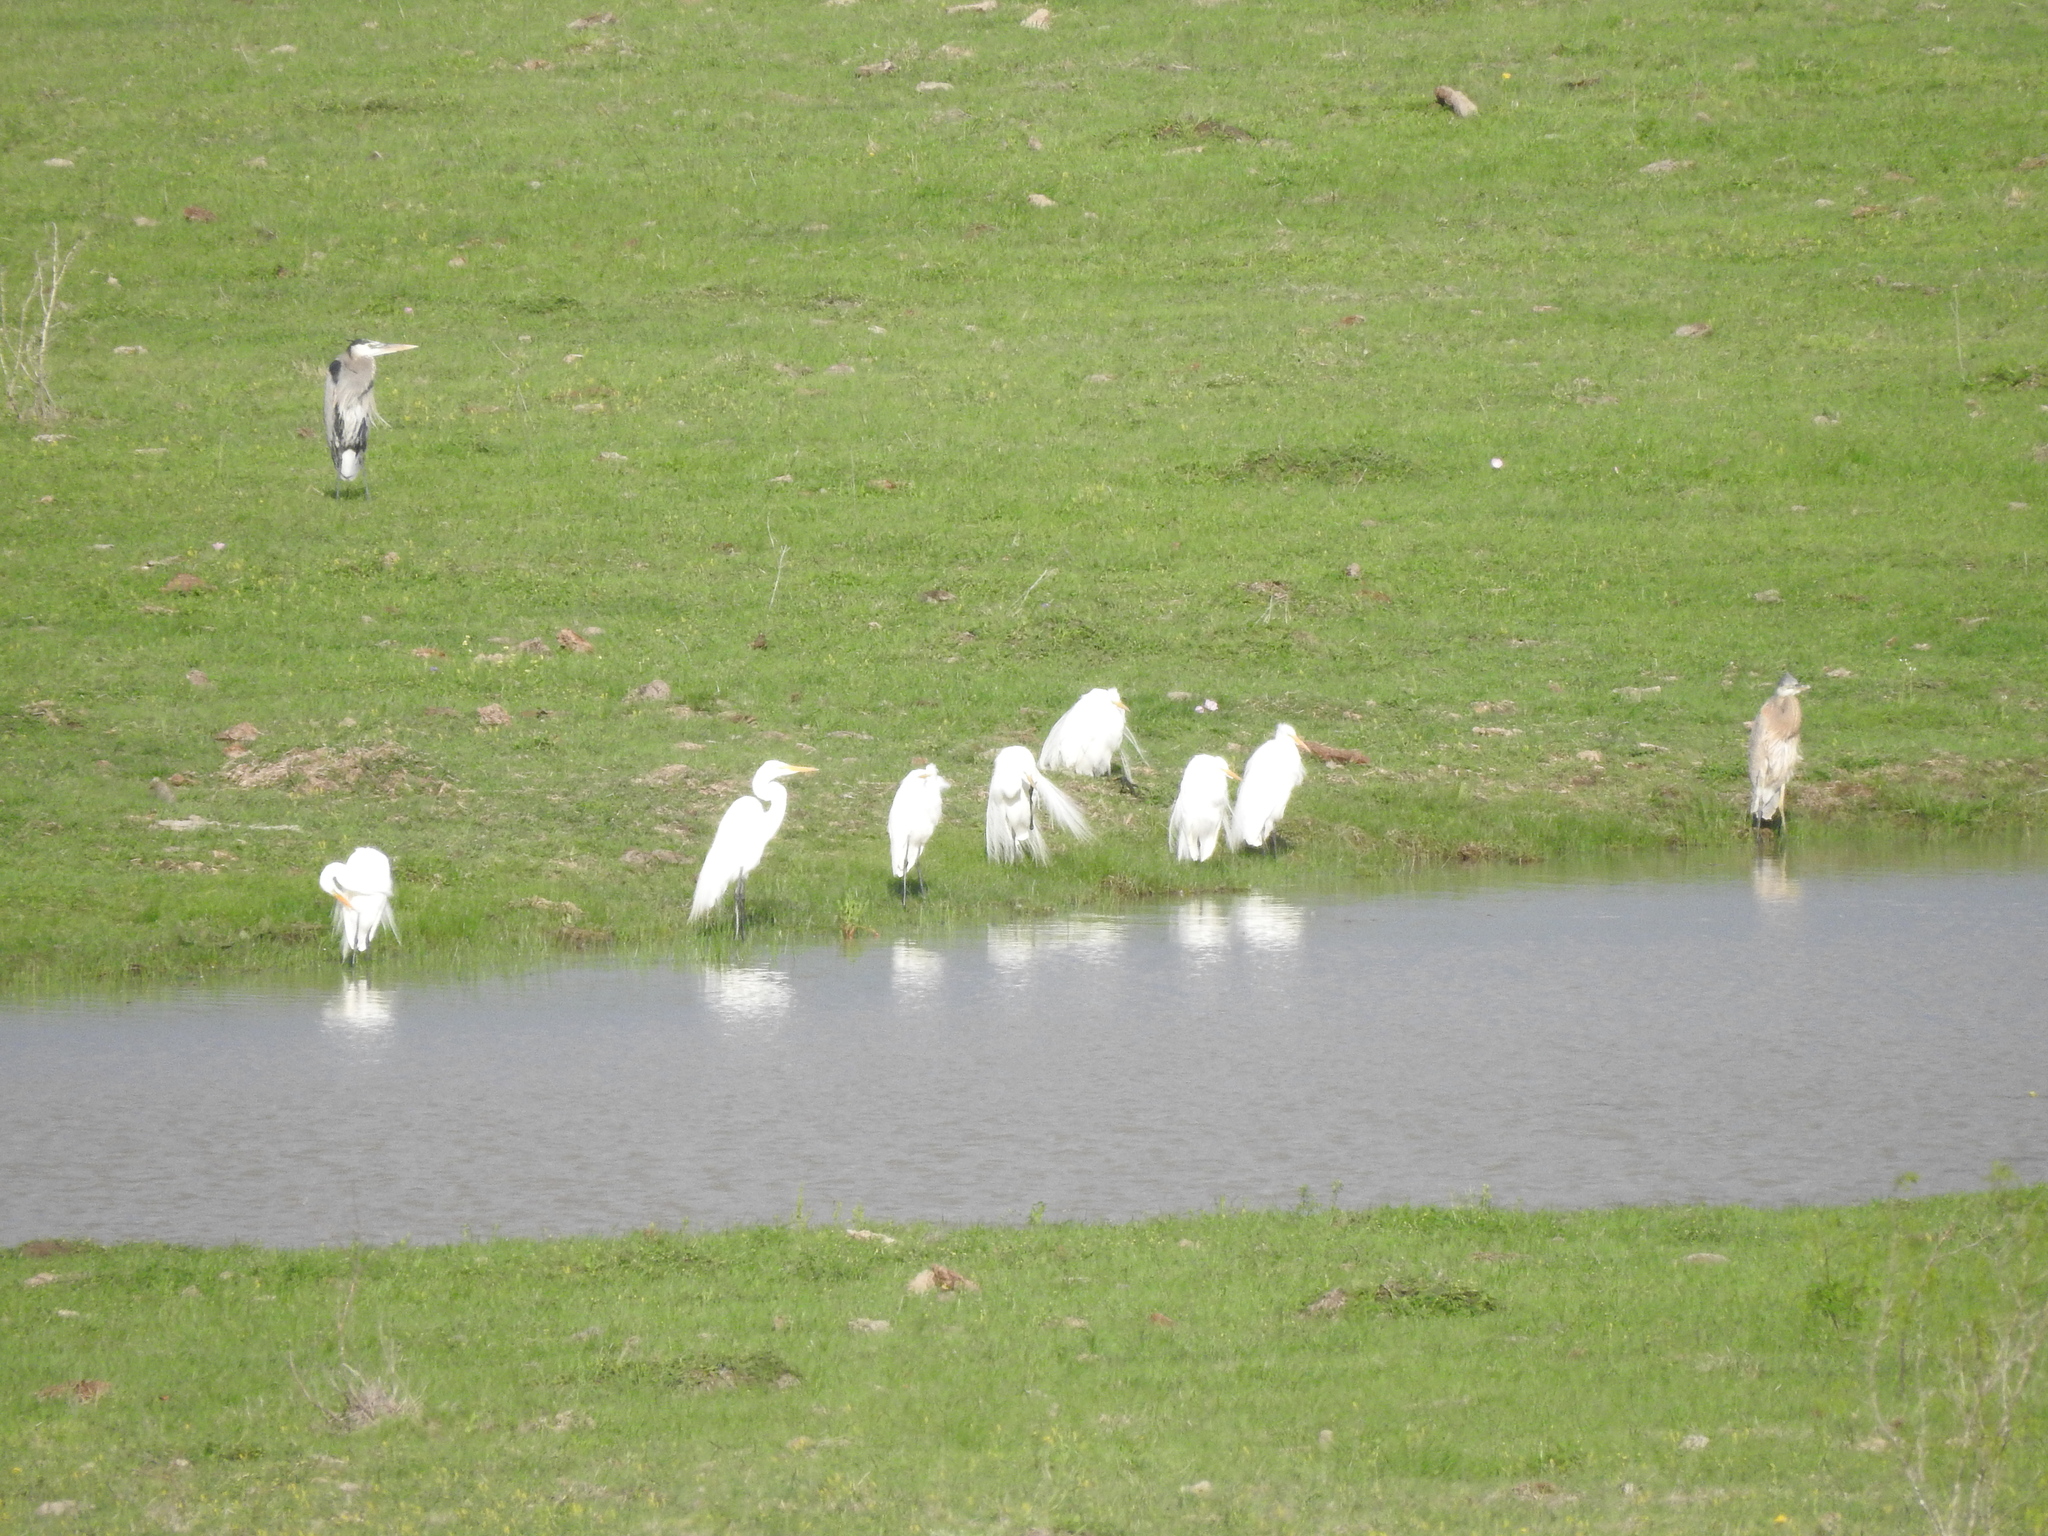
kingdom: Animalia
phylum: Chordata
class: Aves
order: Pelecaniformes
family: Ardeidae
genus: Ardea
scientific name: Ardea alba
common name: Great egret
